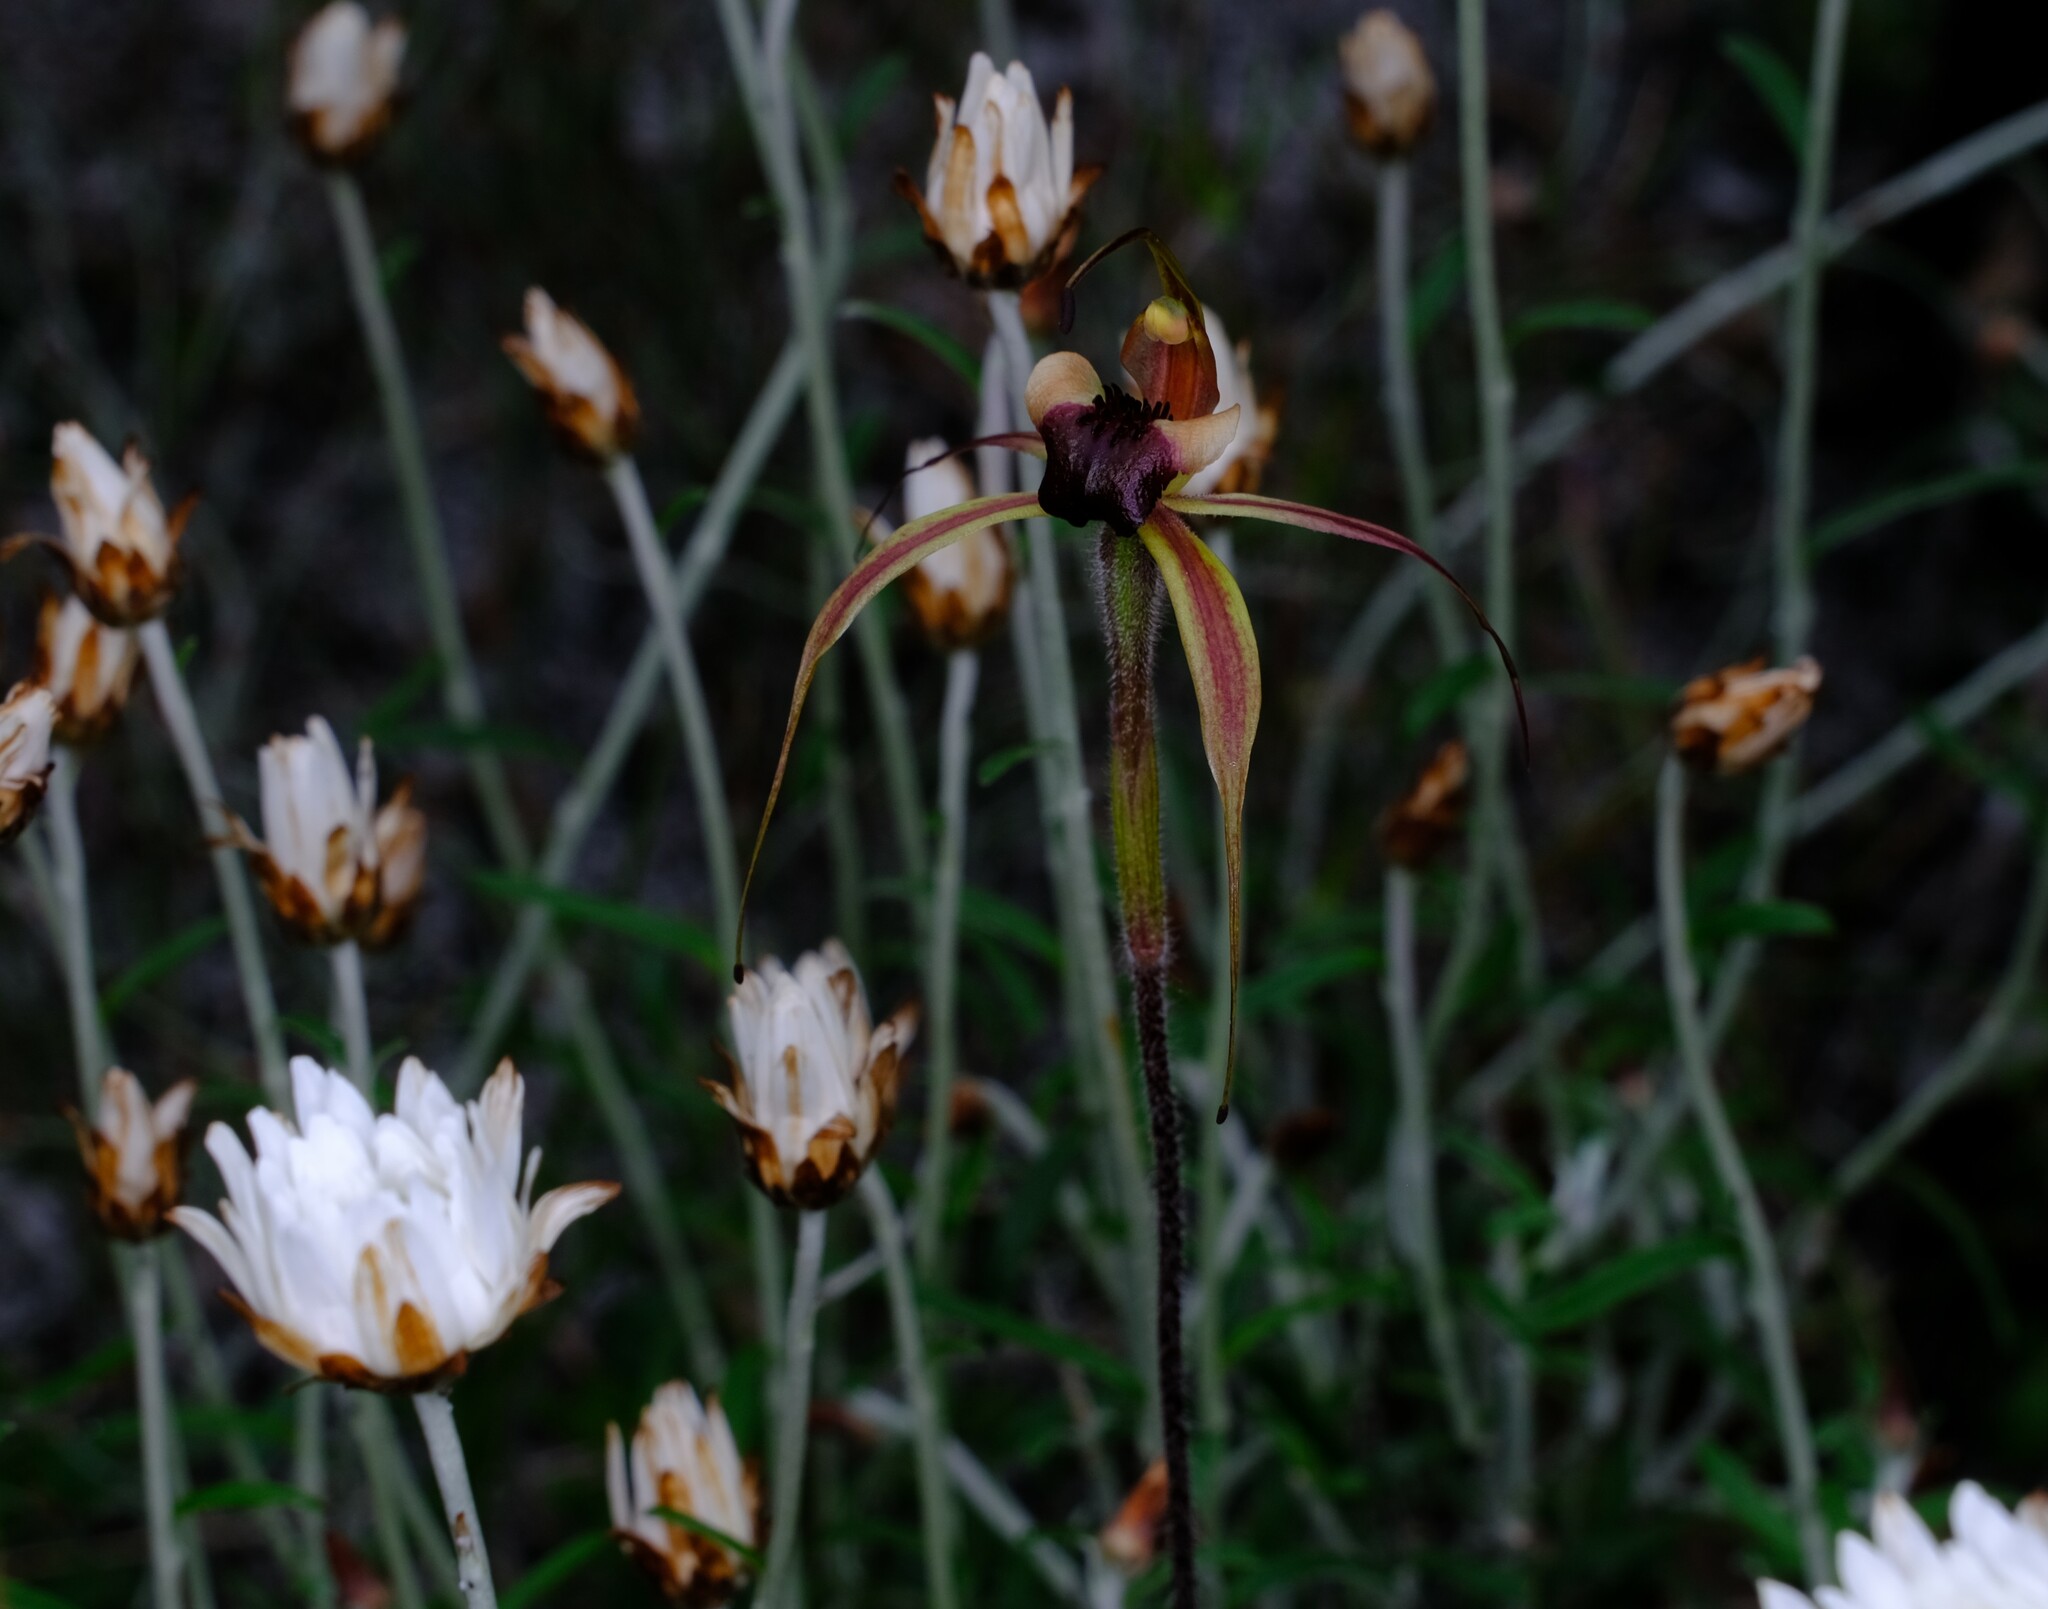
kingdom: Plantae
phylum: Tracheophyta
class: Liliopsida
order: Asparagales
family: Orchidaceae
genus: Caladenia
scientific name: Caladenia clavigera
